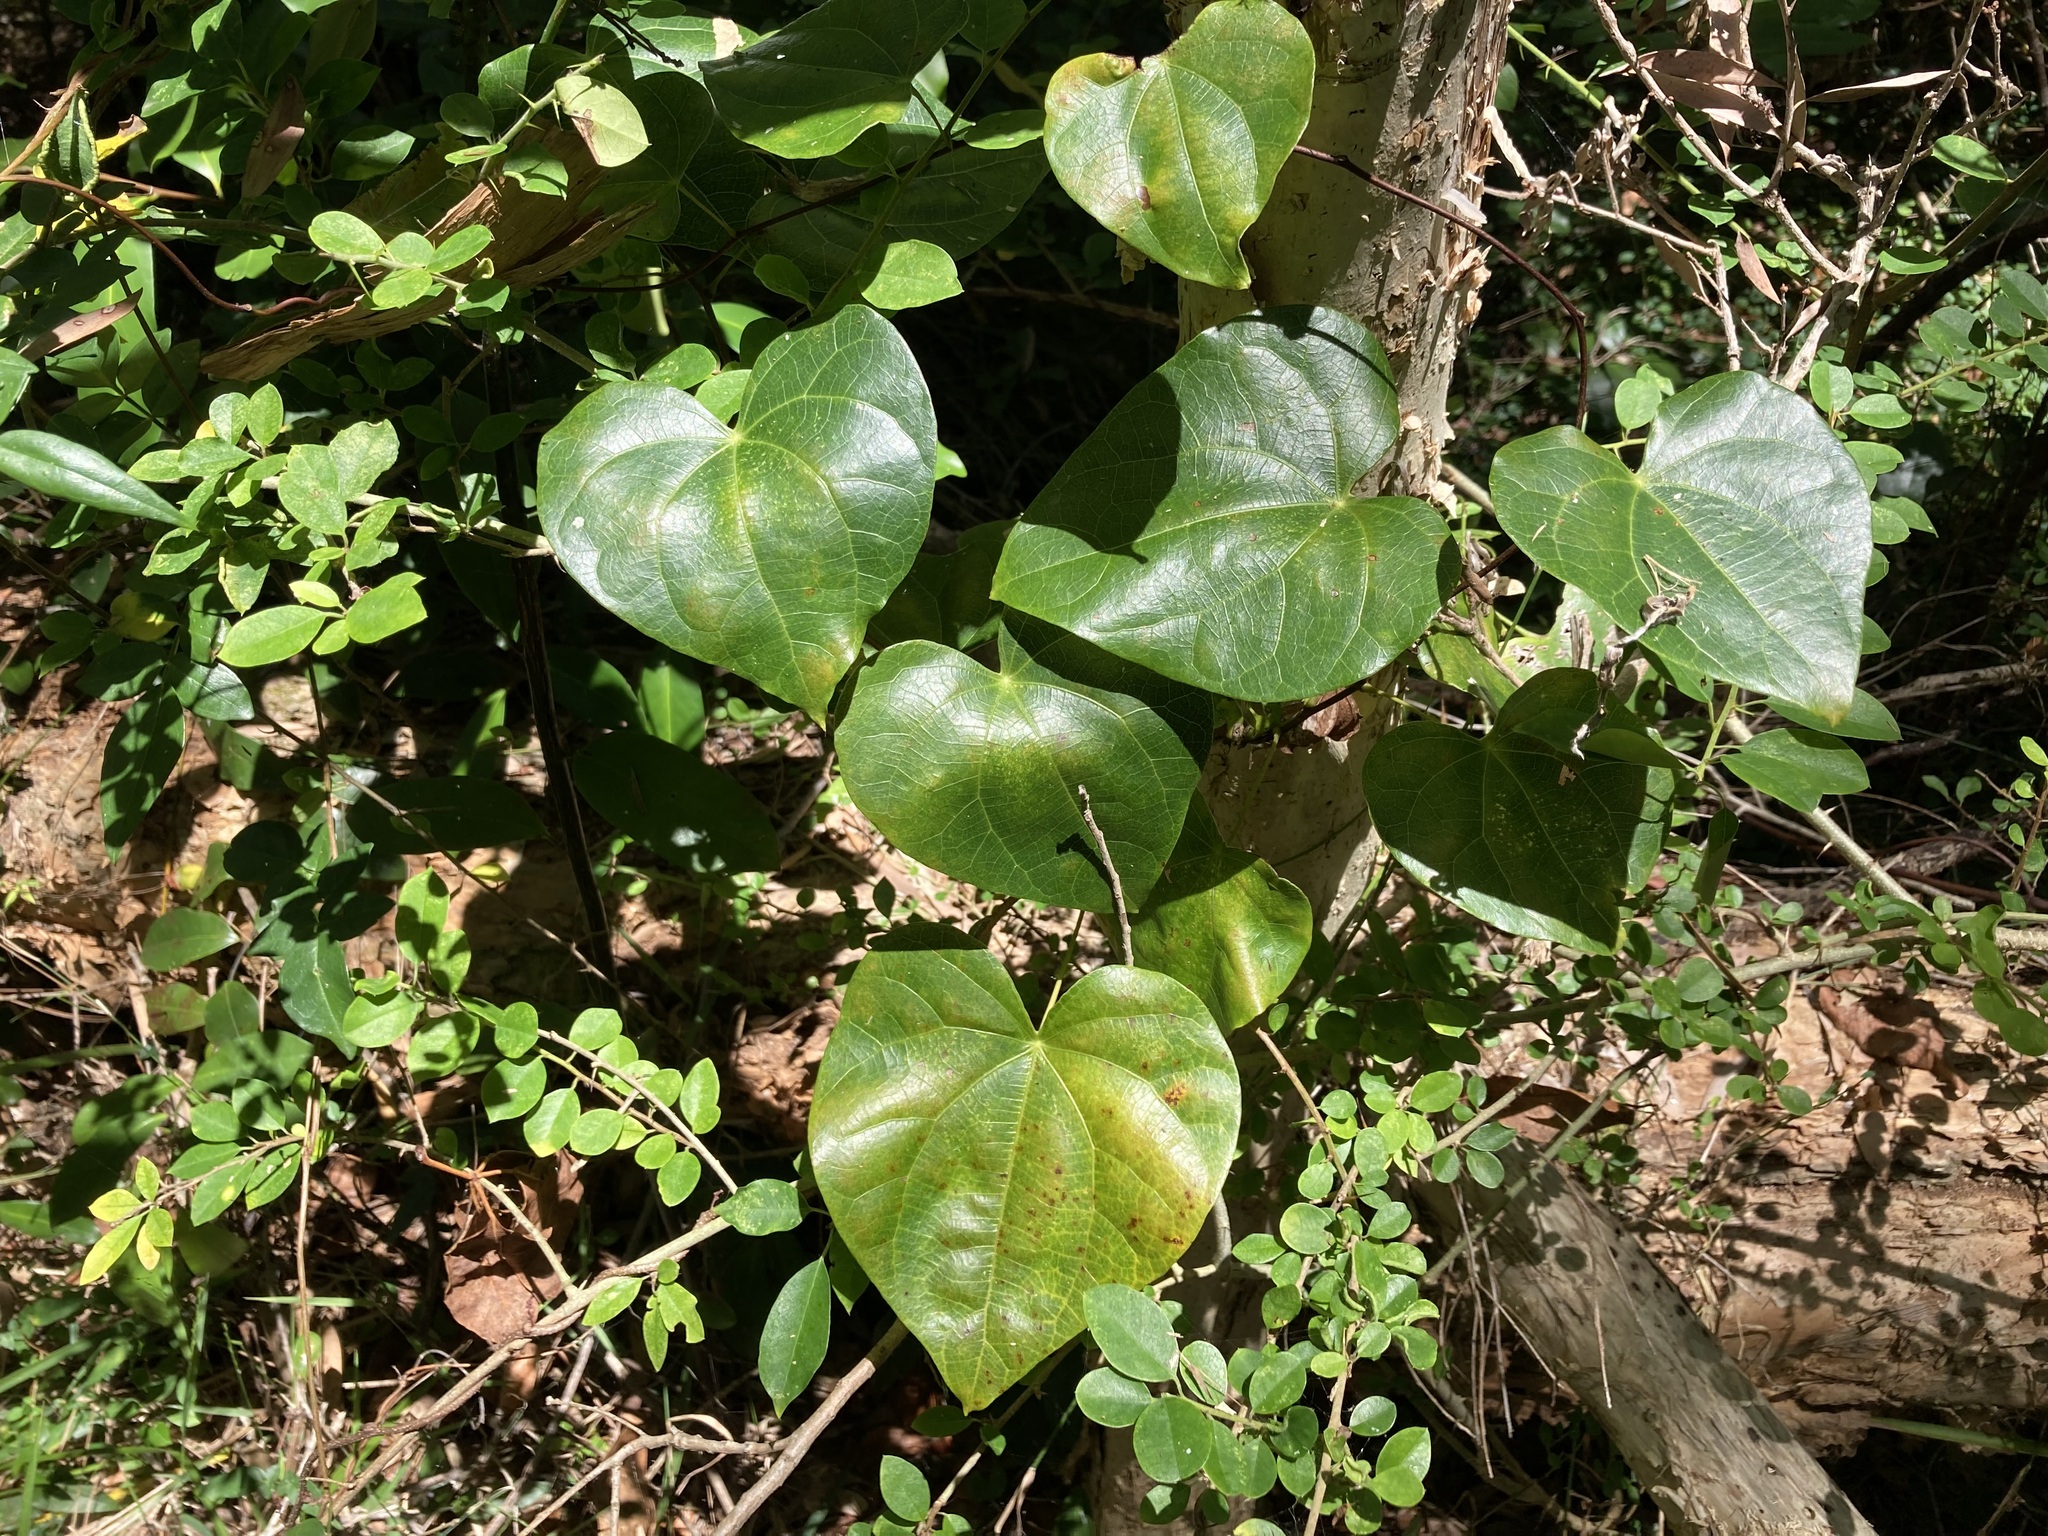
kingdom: Plantae
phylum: Tracheophyta
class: Magnoliopsida
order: Ranunculales
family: Menispermaceae
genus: Sarcopetalum
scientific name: Sarcopetalum harveyanum
